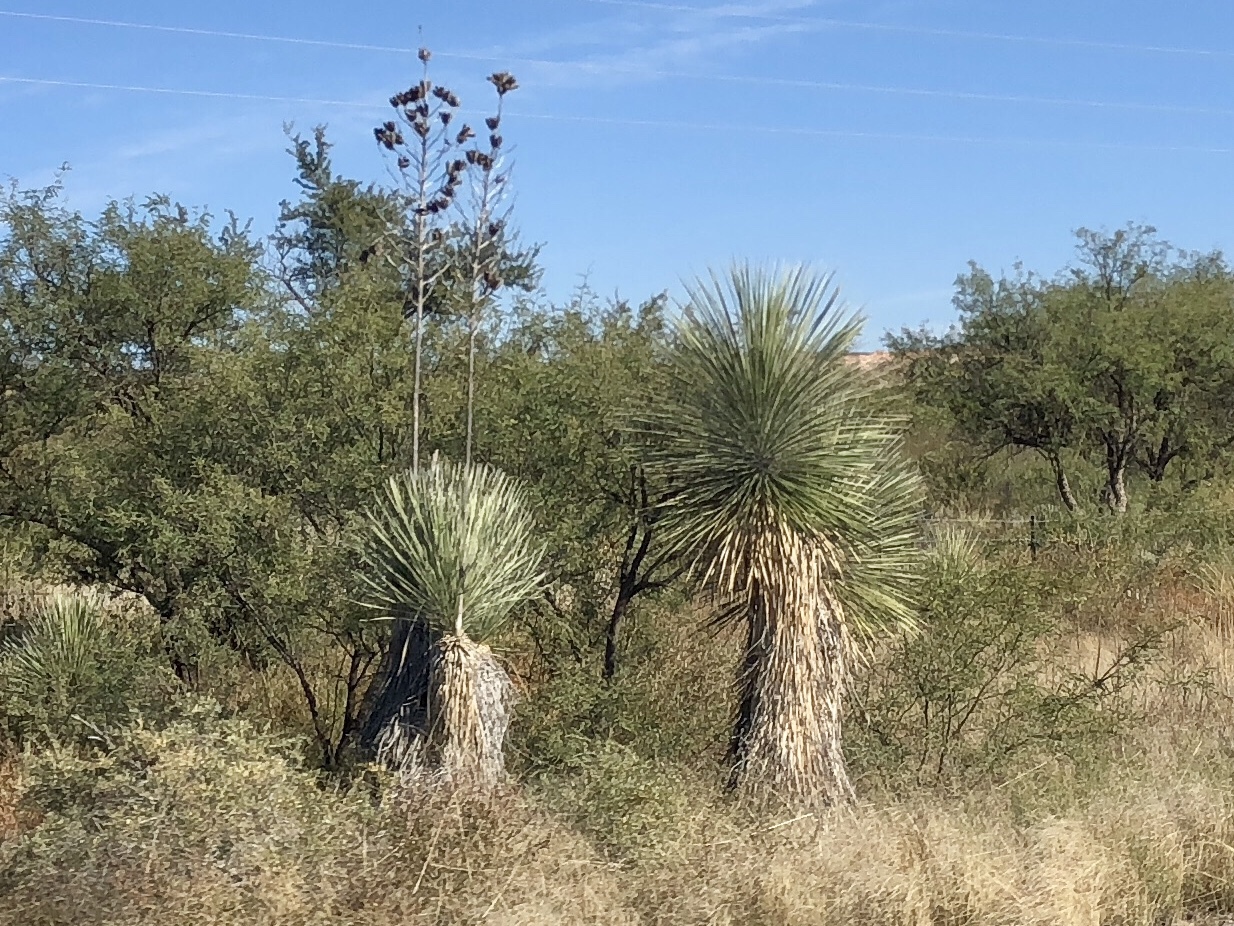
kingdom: Plantae
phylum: Tracheophyta
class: Liliopsida
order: Asparagales
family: Asparagaceae
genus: Yucca
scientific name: Yucca elata
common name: Palmella
